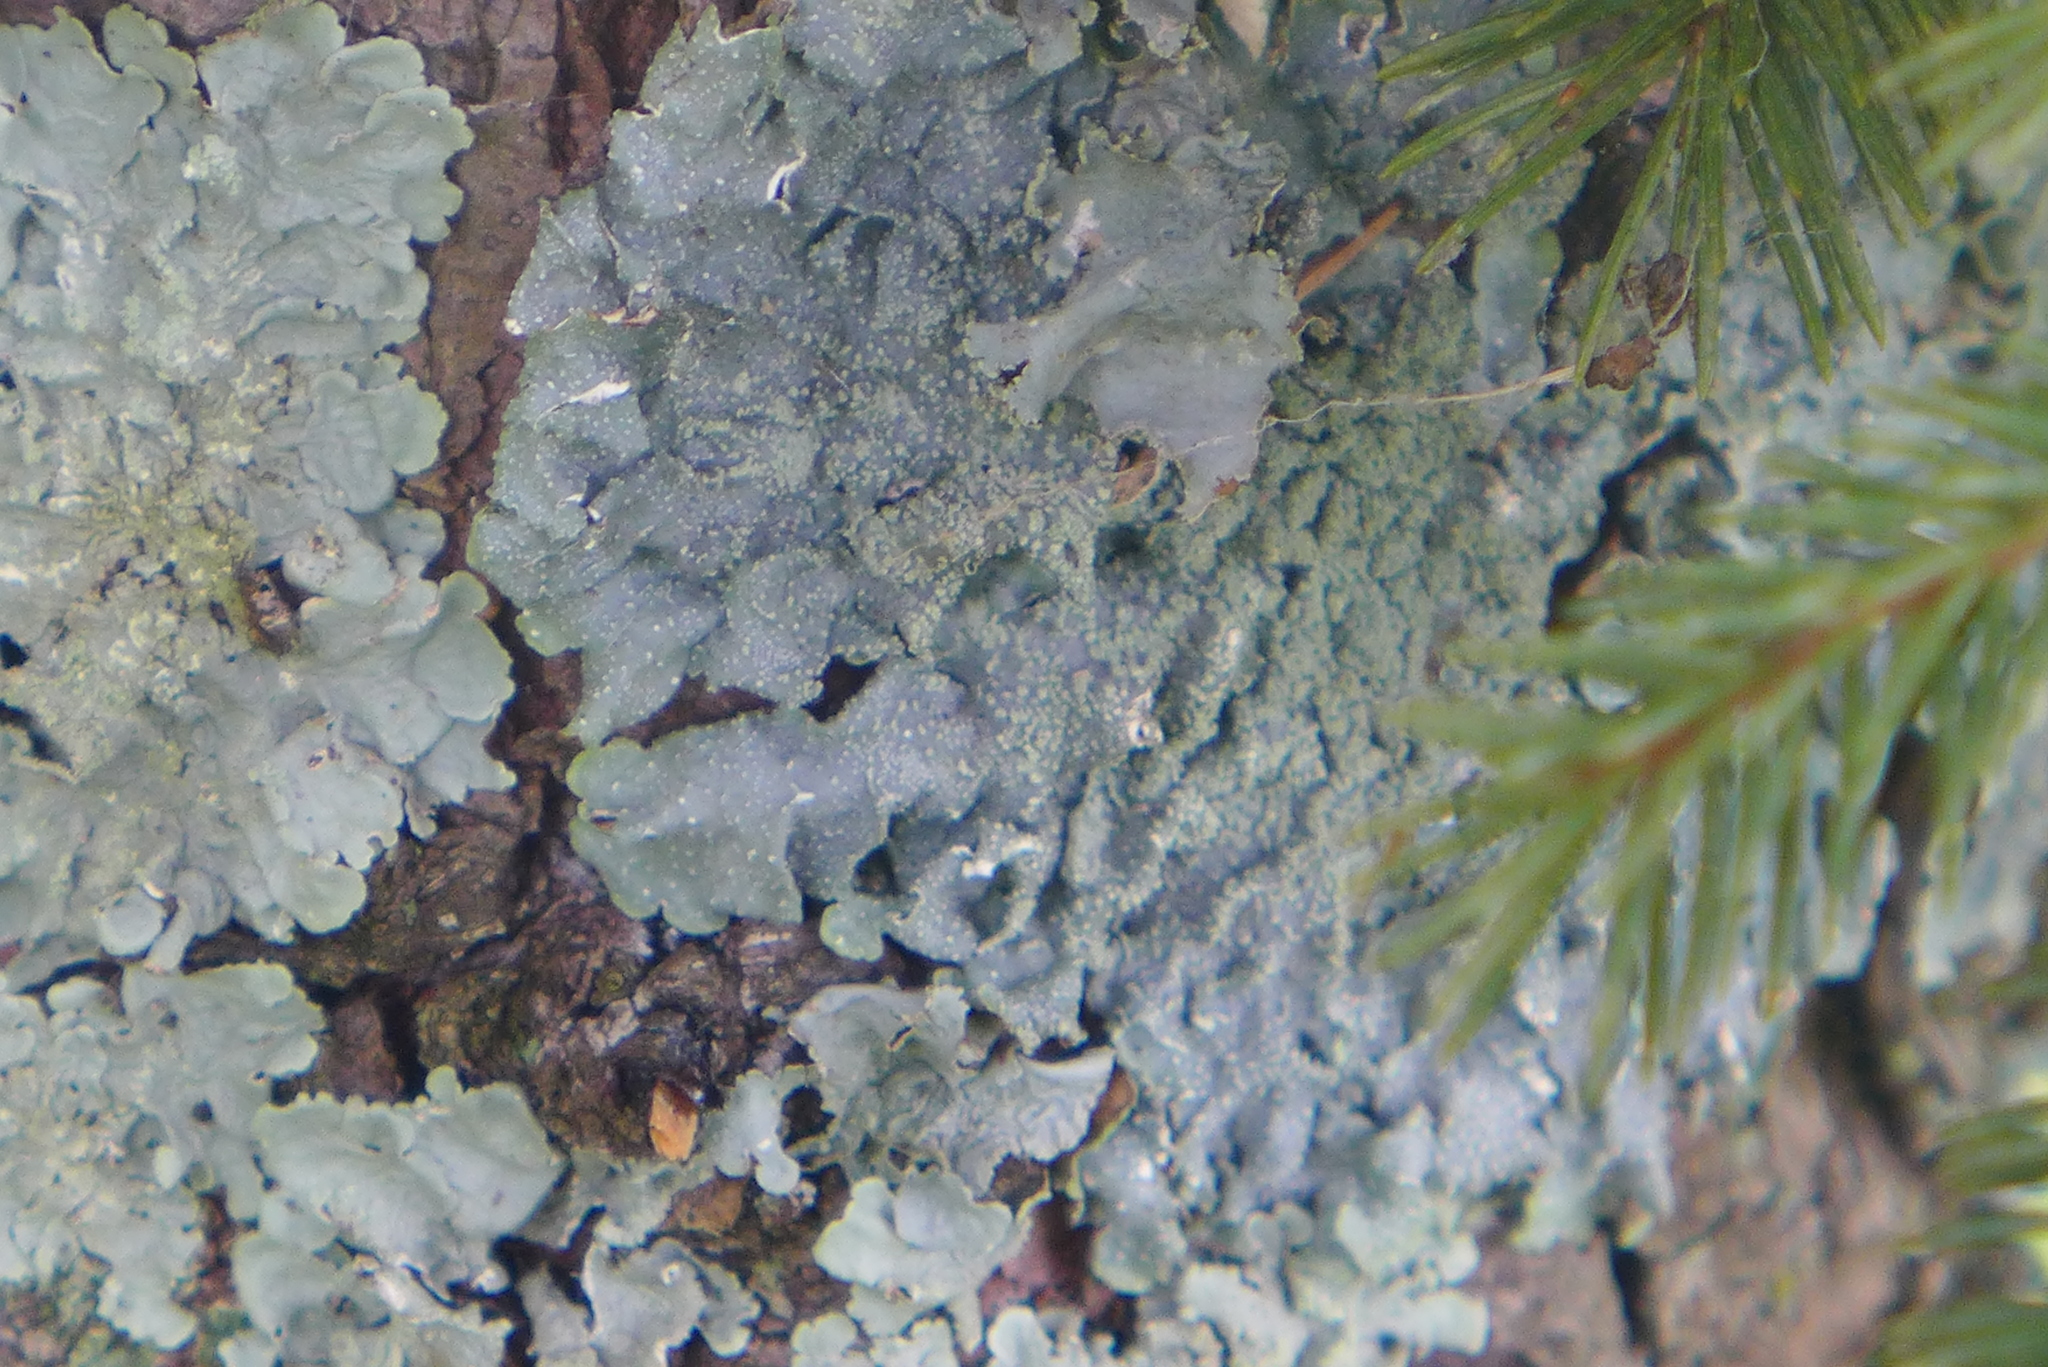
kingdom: Fungi
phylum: Ascomycota
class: Lecanoromycetes
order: Lecanorales
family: Parmeliaceae
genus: Punctelia
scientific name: Punctelia missouriensis
